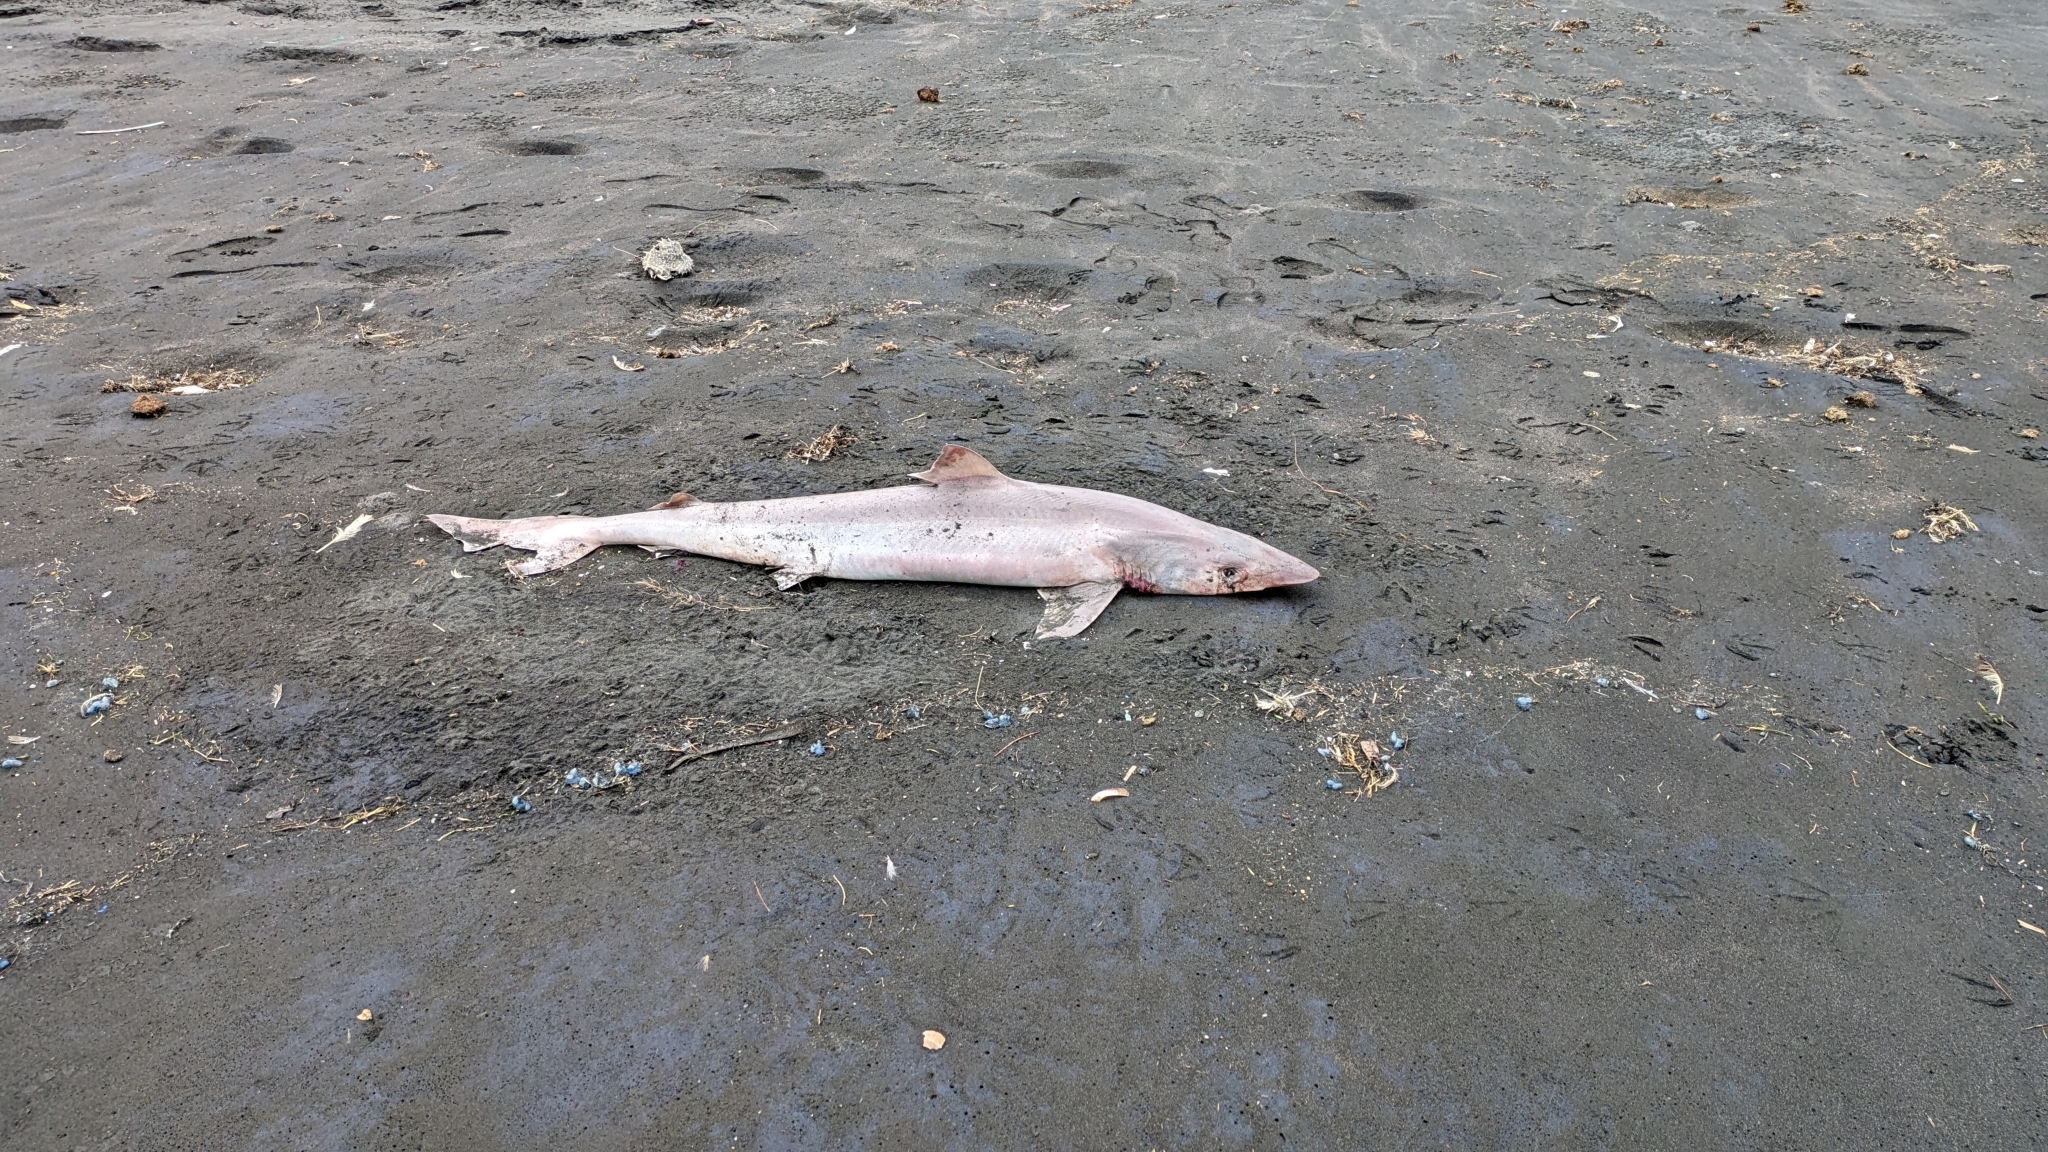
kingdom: Animalia
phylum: Chordata
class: Elasmobranchii
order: Carcharhiniformes
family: Triakidae
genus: Galeorhinus
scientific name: Galeorhinus galeus
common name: Tope
